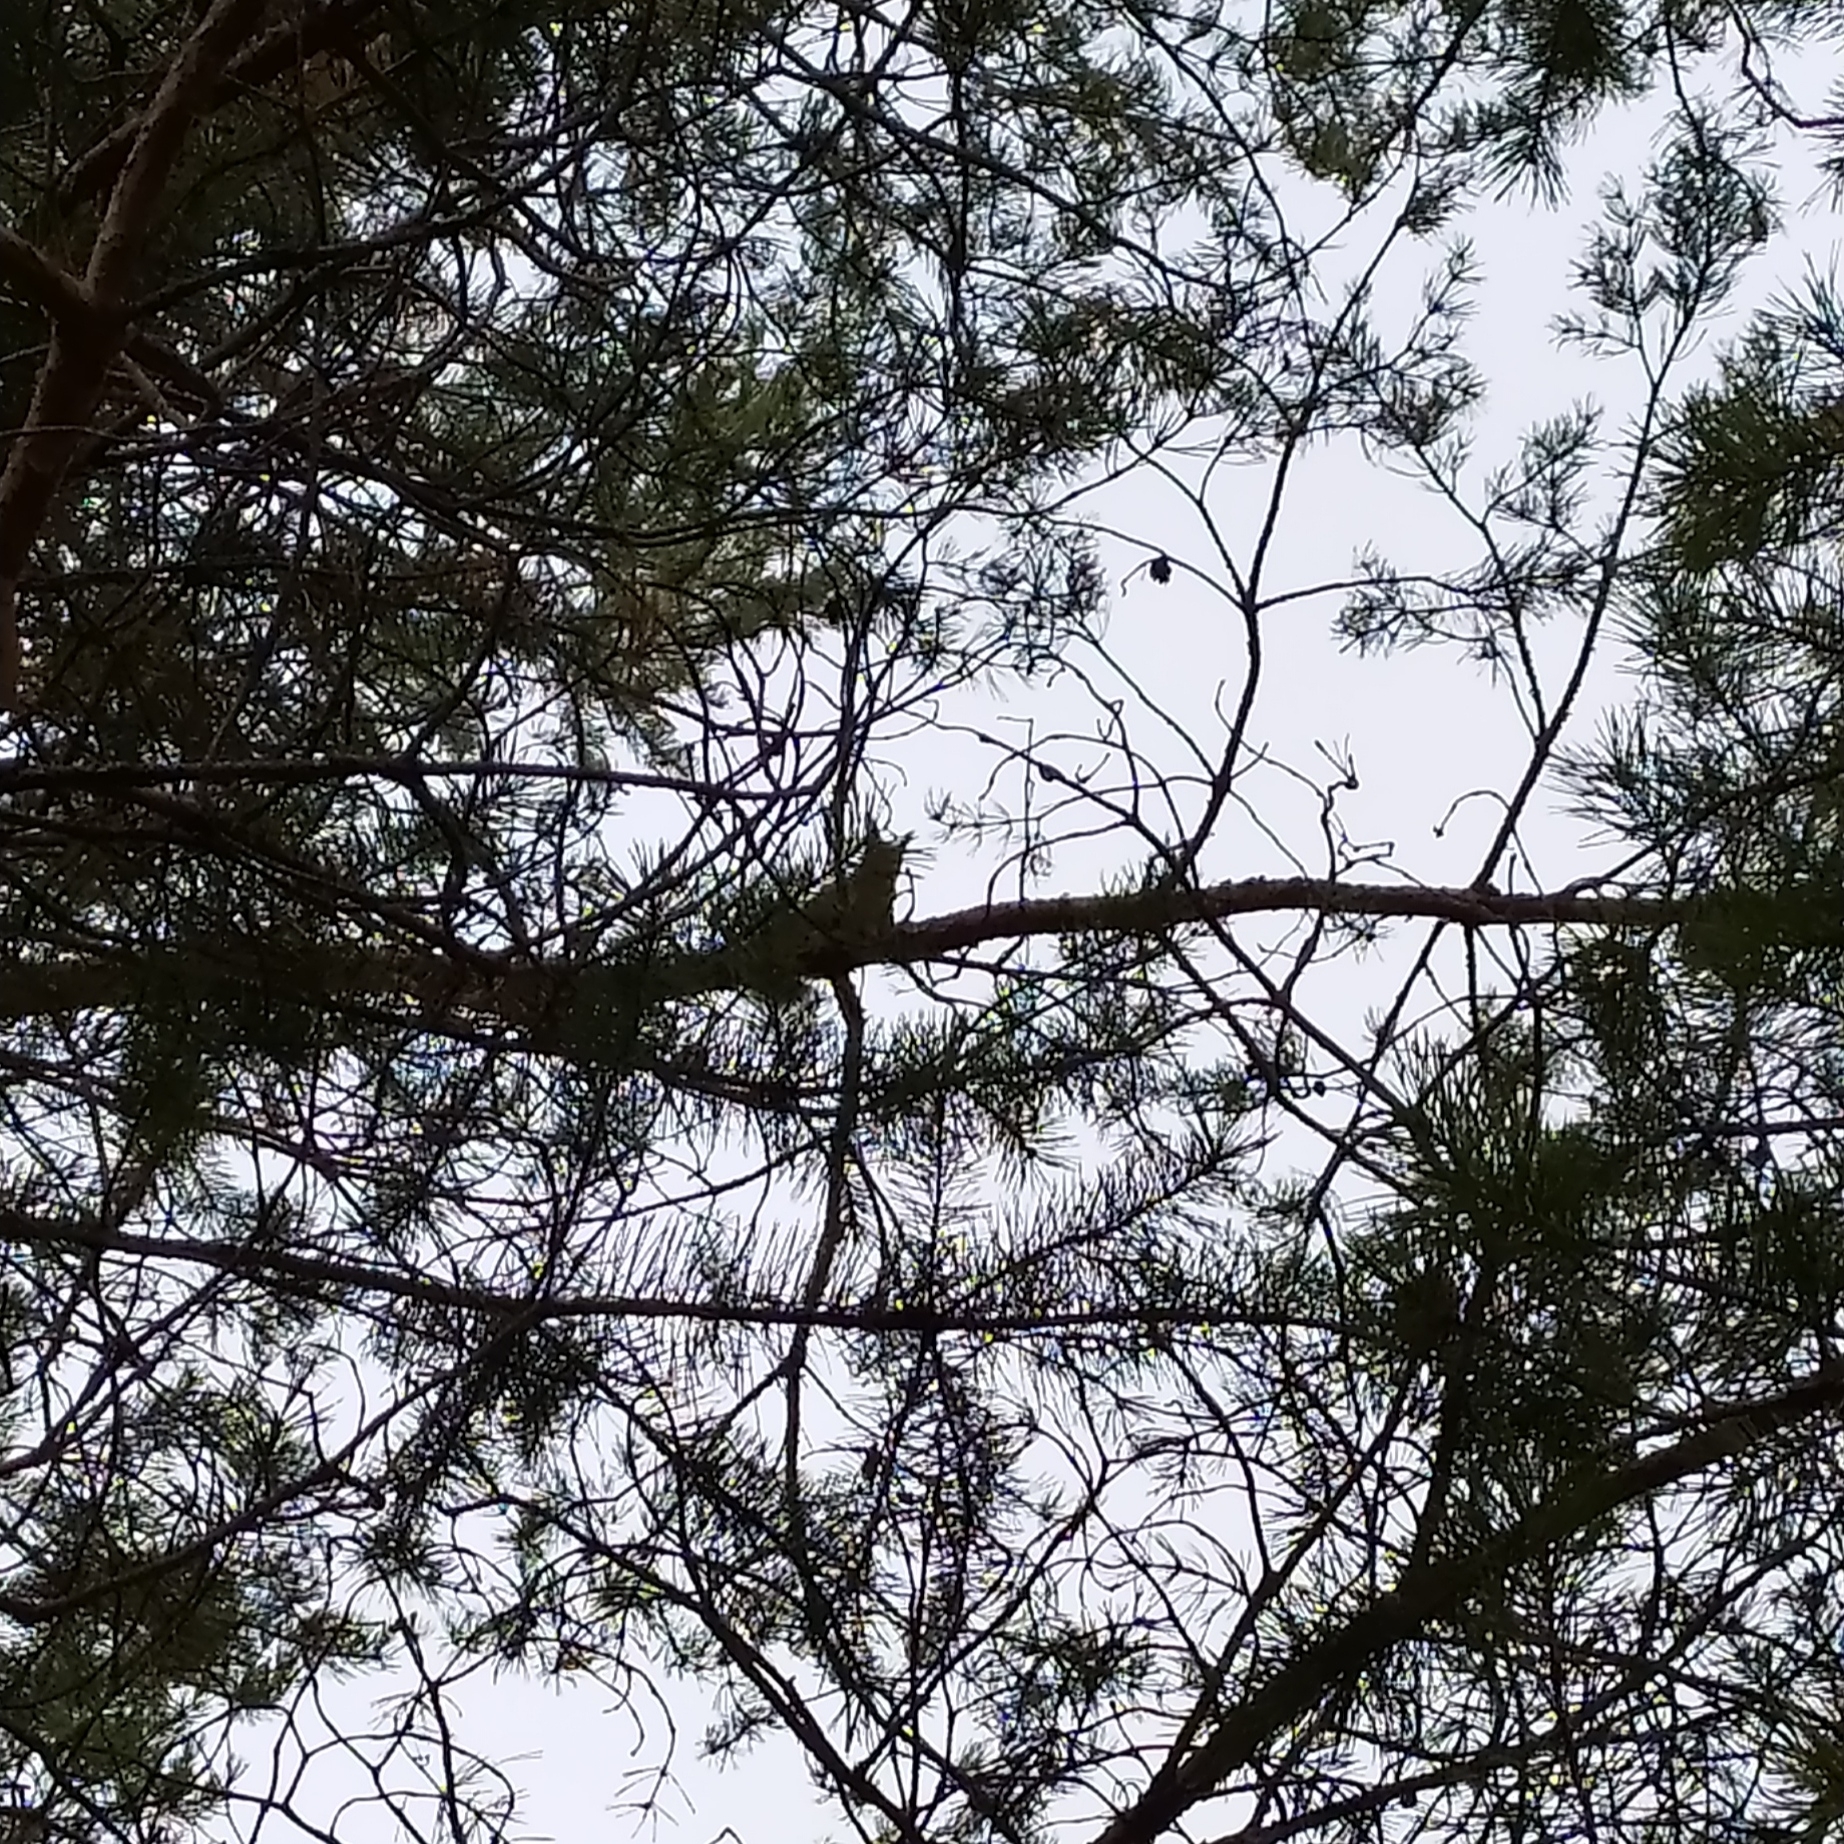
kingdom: Animalia
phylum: Chordata
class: Mammalia
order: Rodentia
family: Sciuridae
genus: Sciurus
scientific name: Sciurus vulgaris
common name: Eurasian red squirrel
